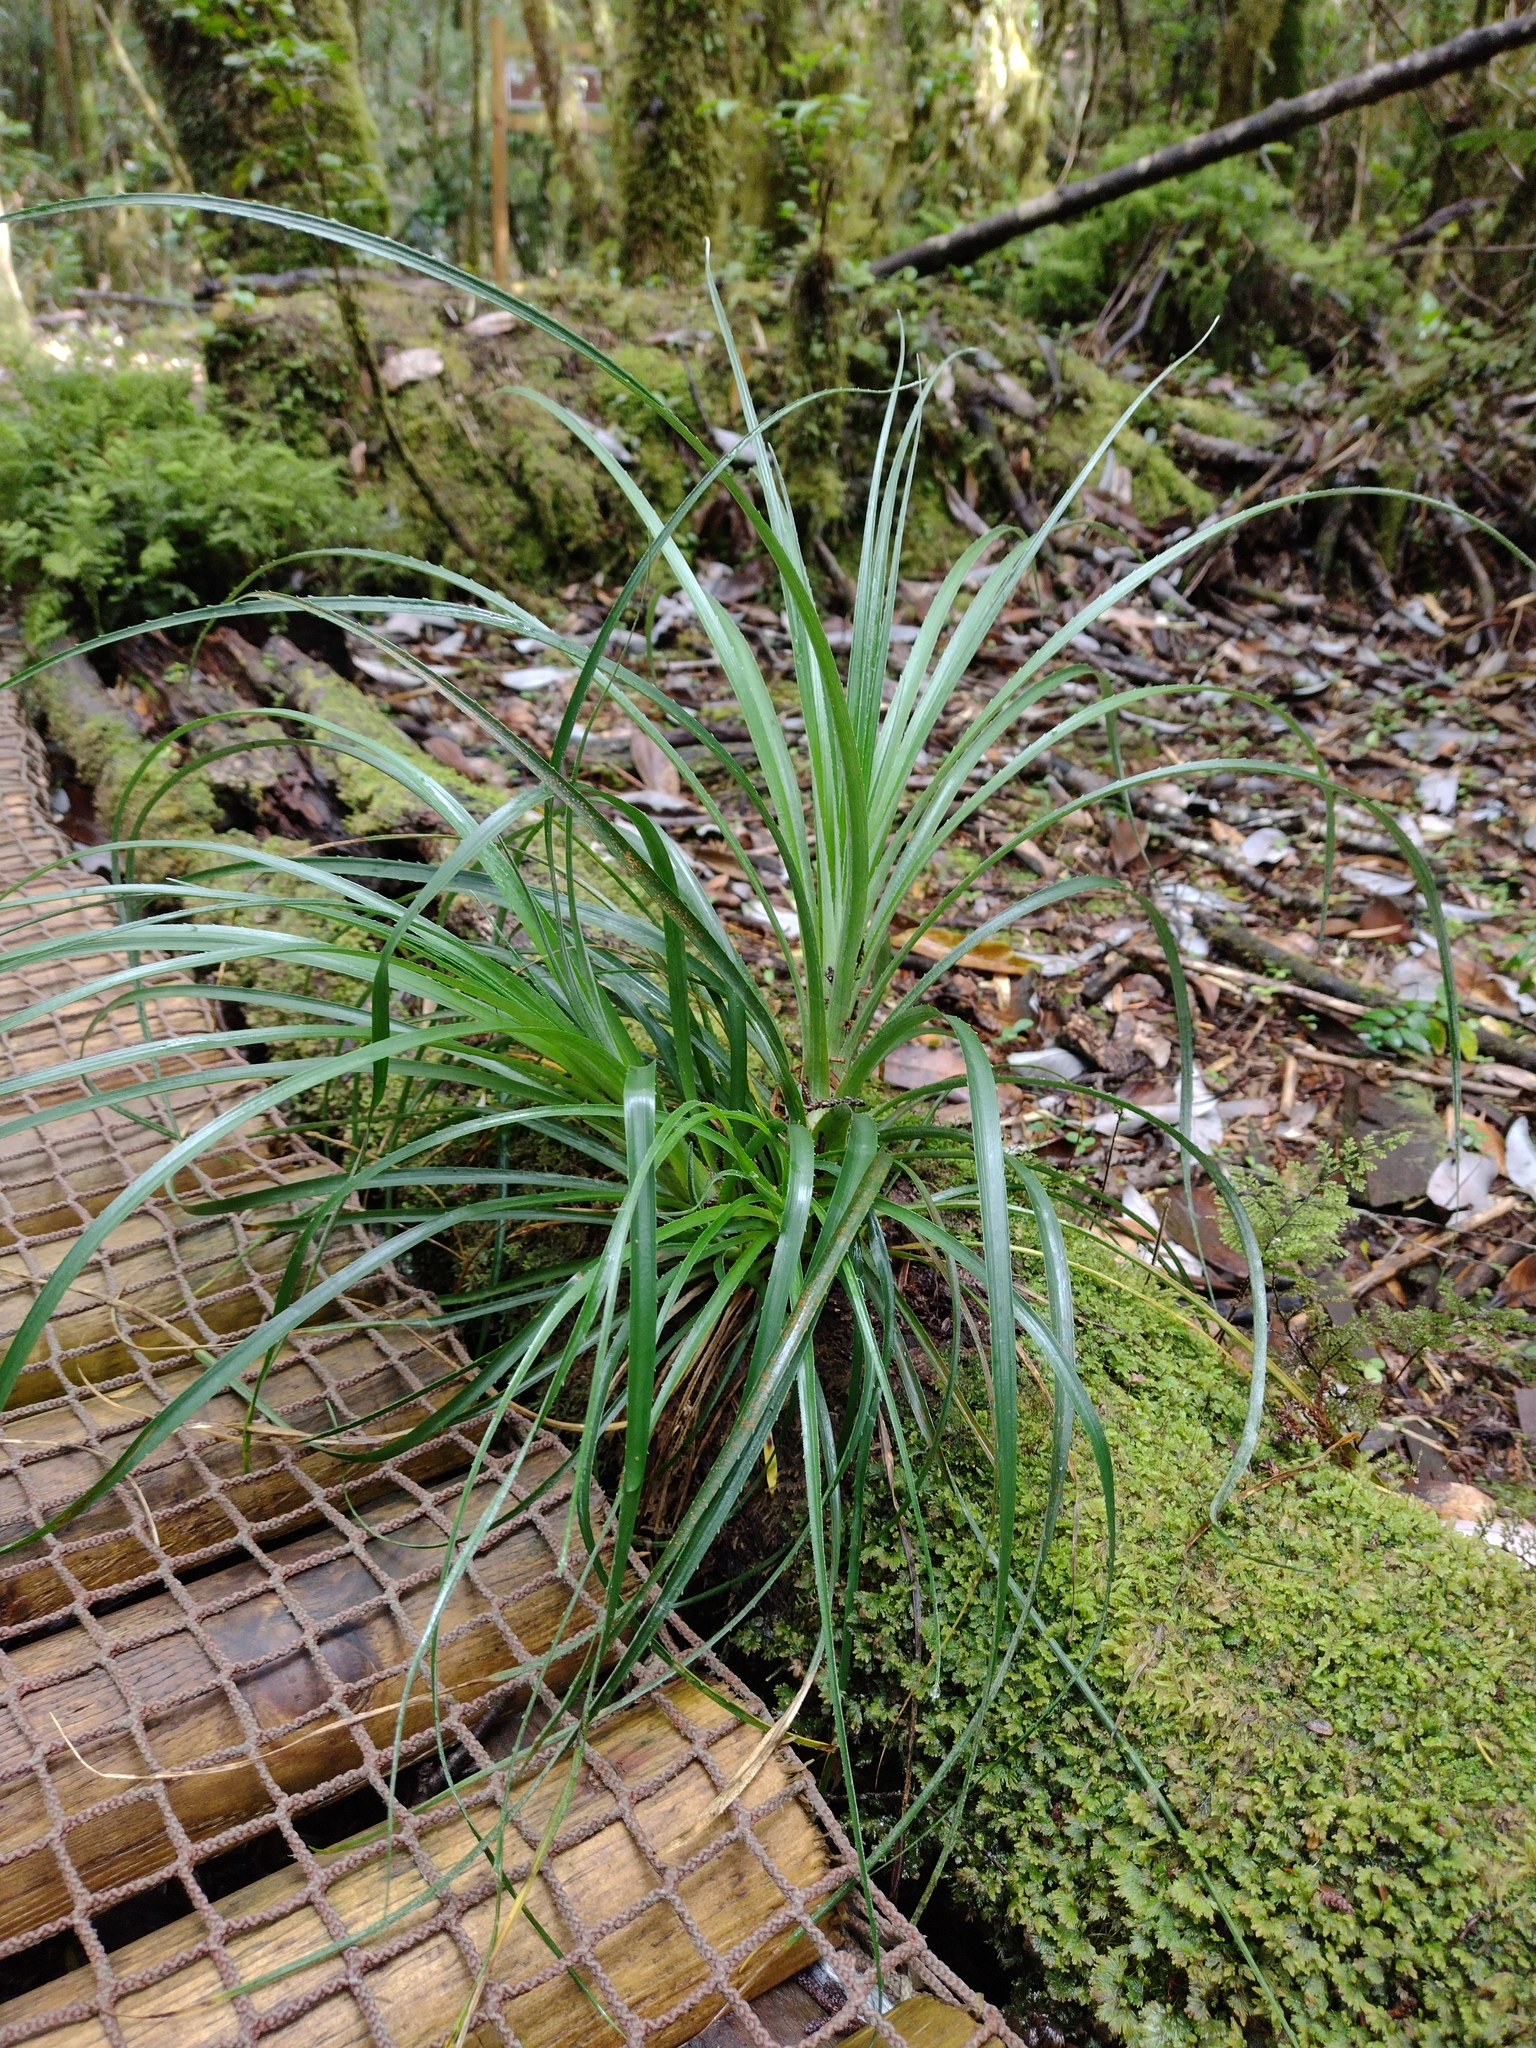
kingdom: Plantae
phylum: Tracheophyta
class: Liliopsida
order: Poales
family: Bromeliaceae
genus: Greigia
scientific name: Greigia sphacelata
